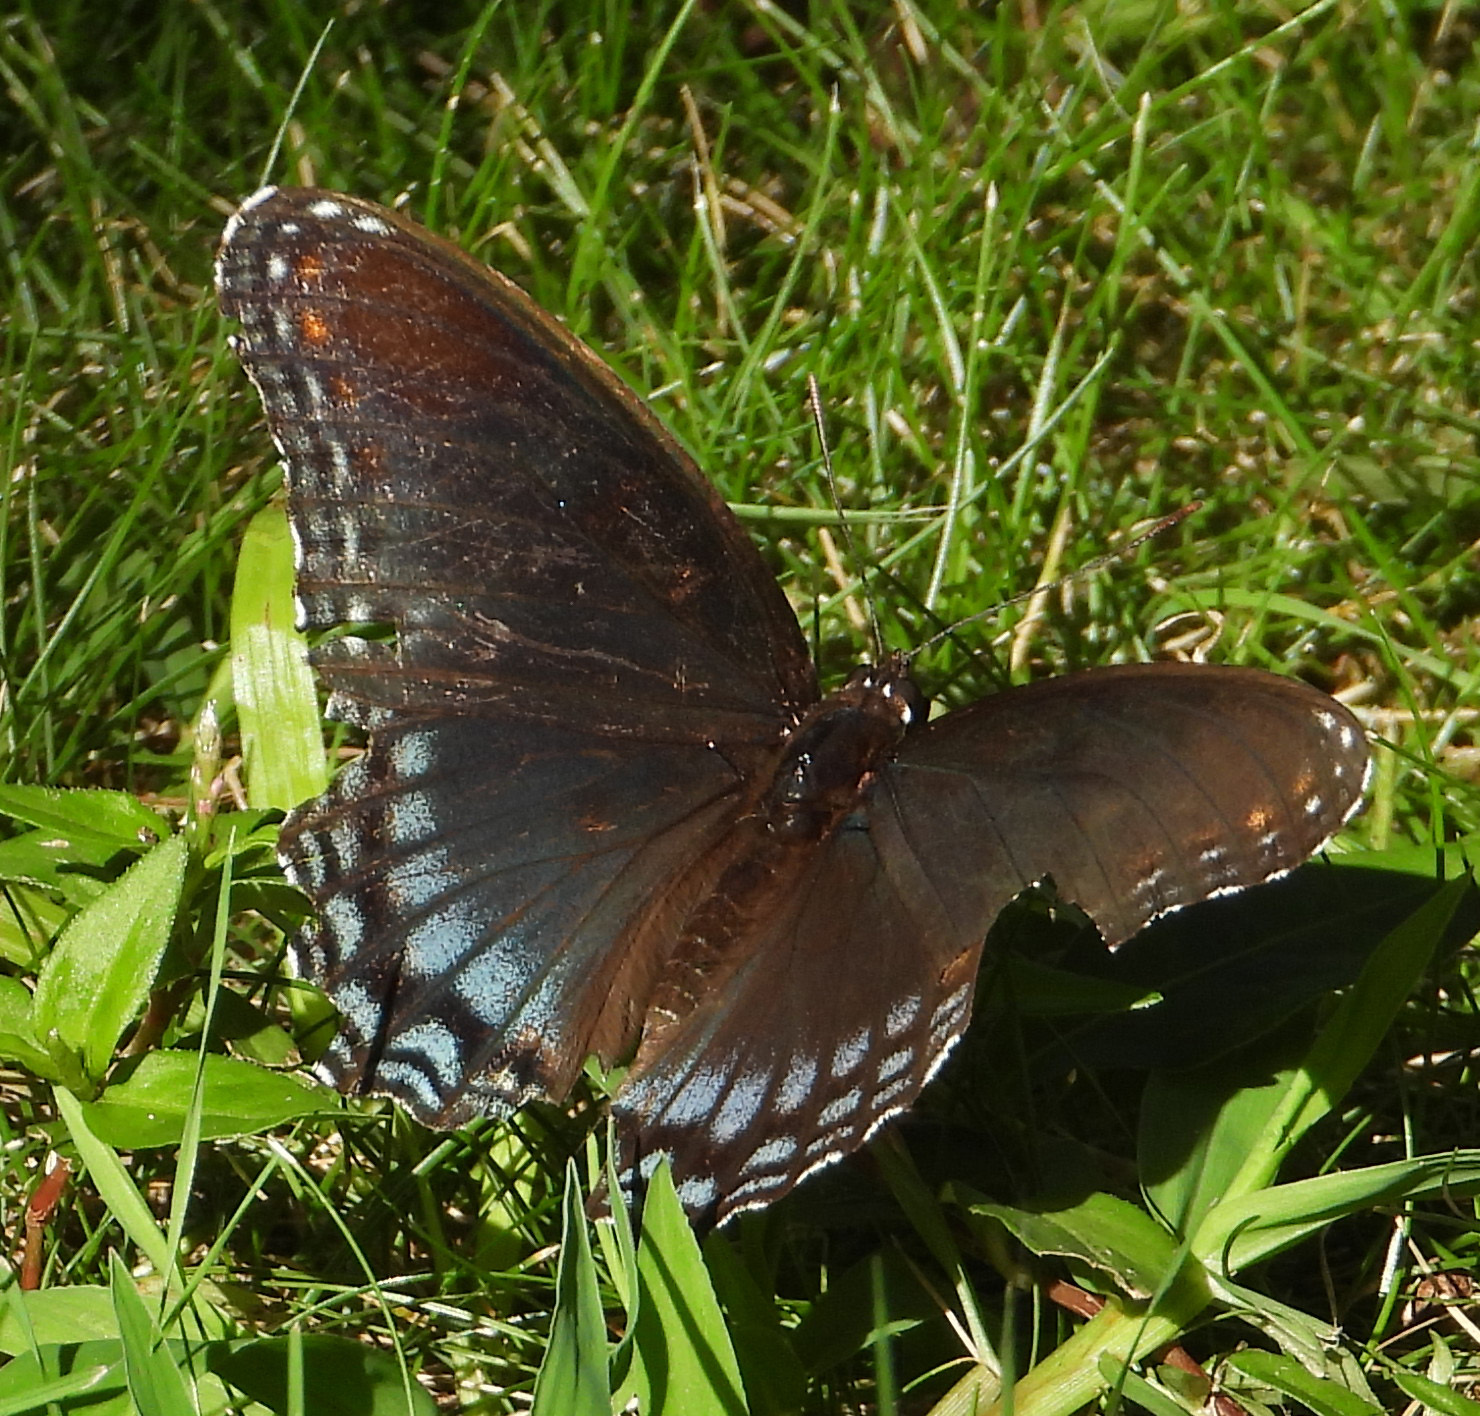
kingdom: Animalia
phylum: Arthropoda
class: Insecta
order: Lepidoptera
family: Nymphalidae
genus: Limenitis
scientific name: Limenitis astyanax
